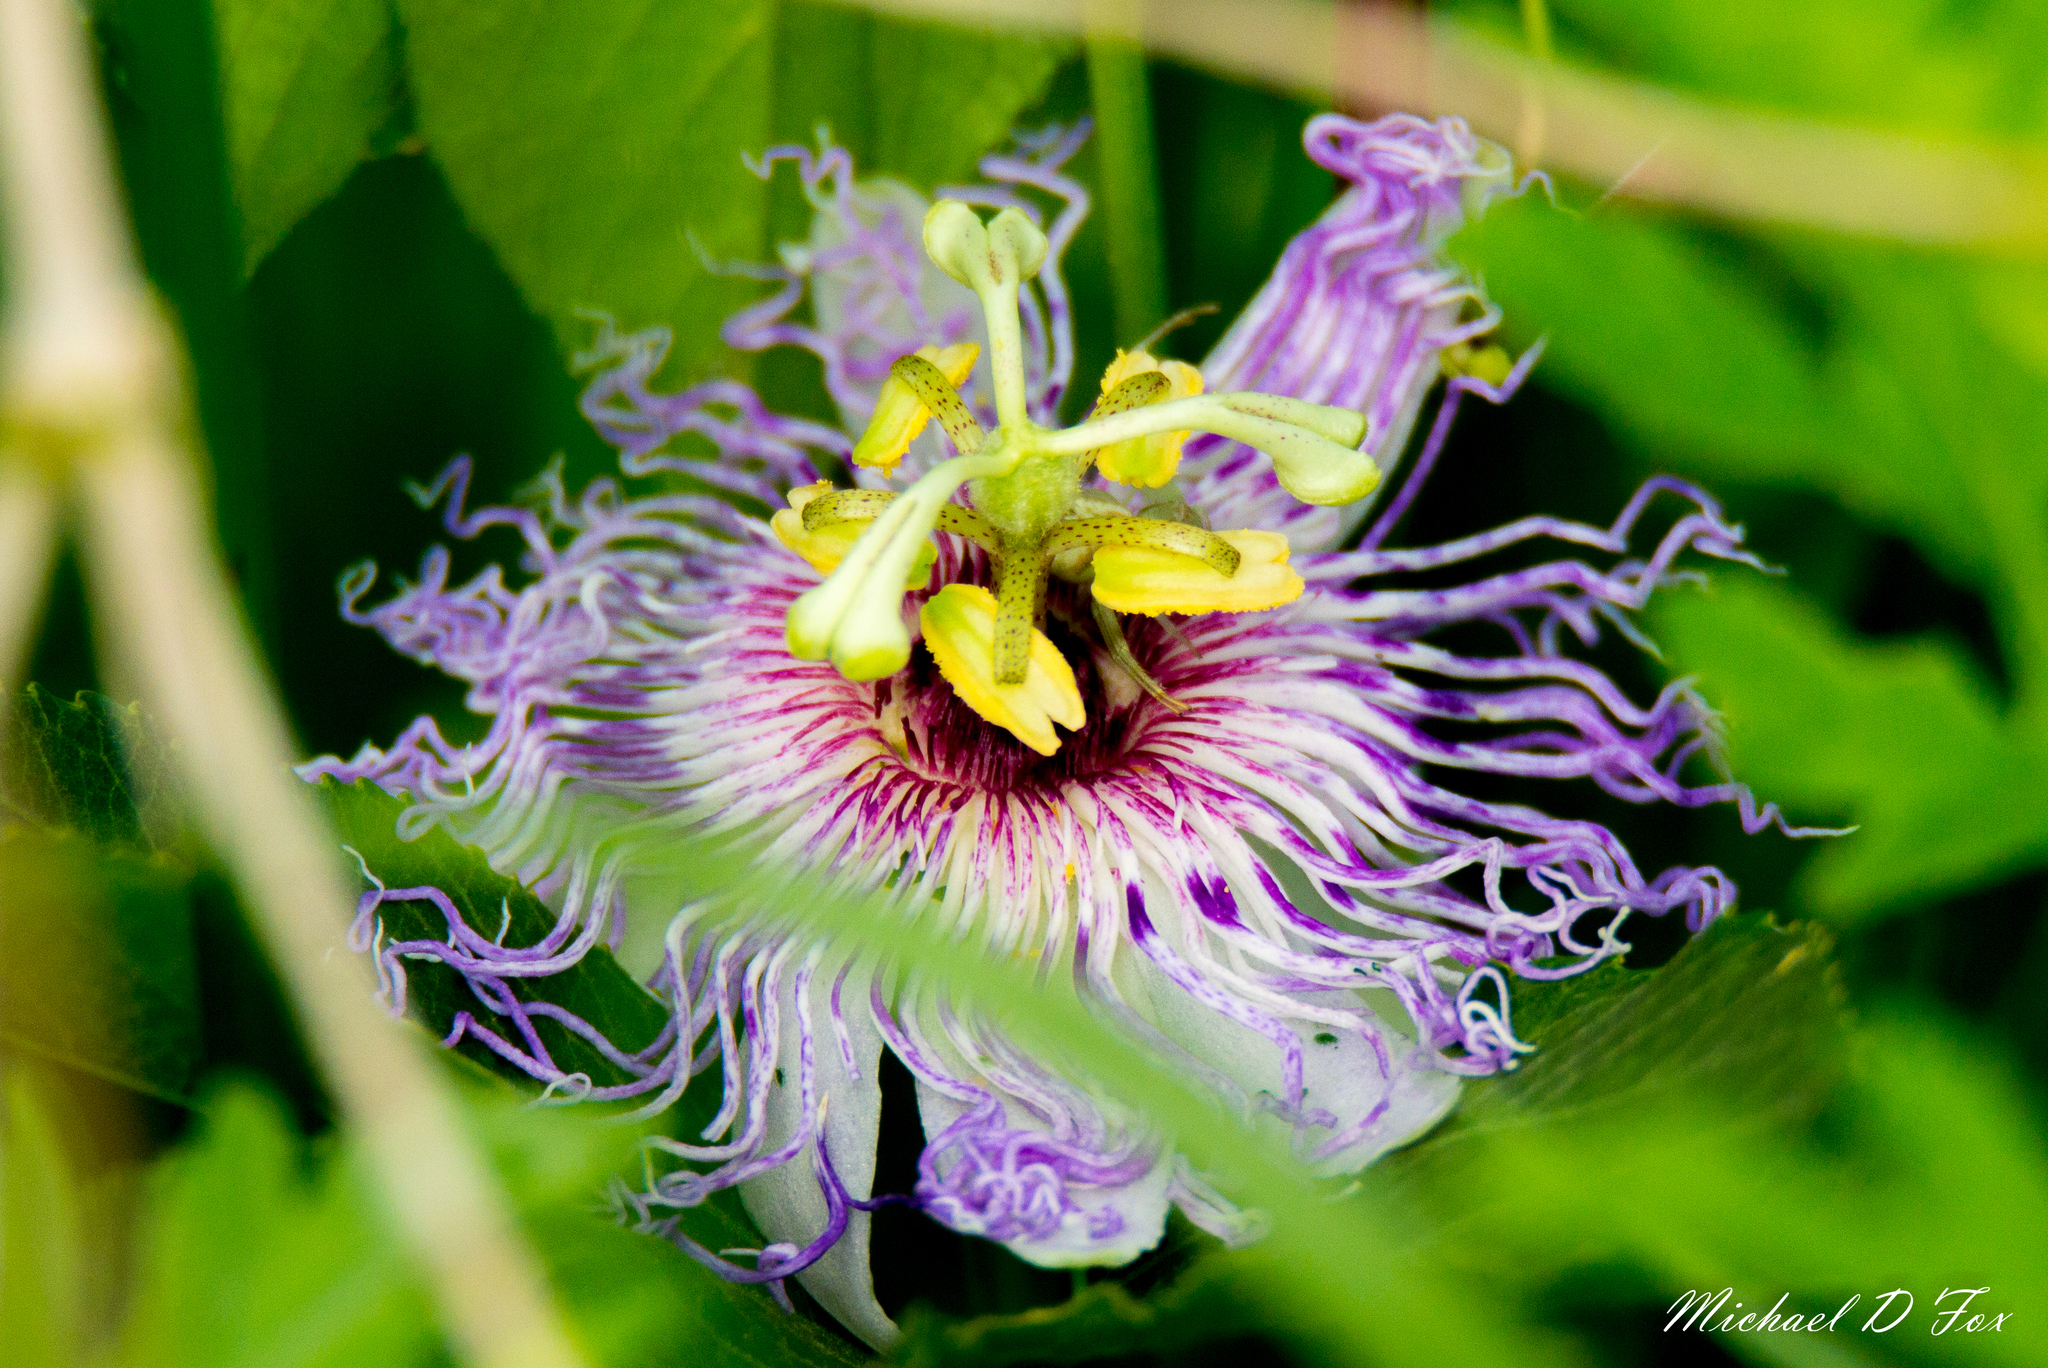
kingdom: Plantae
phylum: Tracheophyta
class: Magnoliopsida
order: Malpighiales
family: Passifloraceae
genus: Passiflora
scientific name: Passiflora incarnata
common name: Apricot-vine
